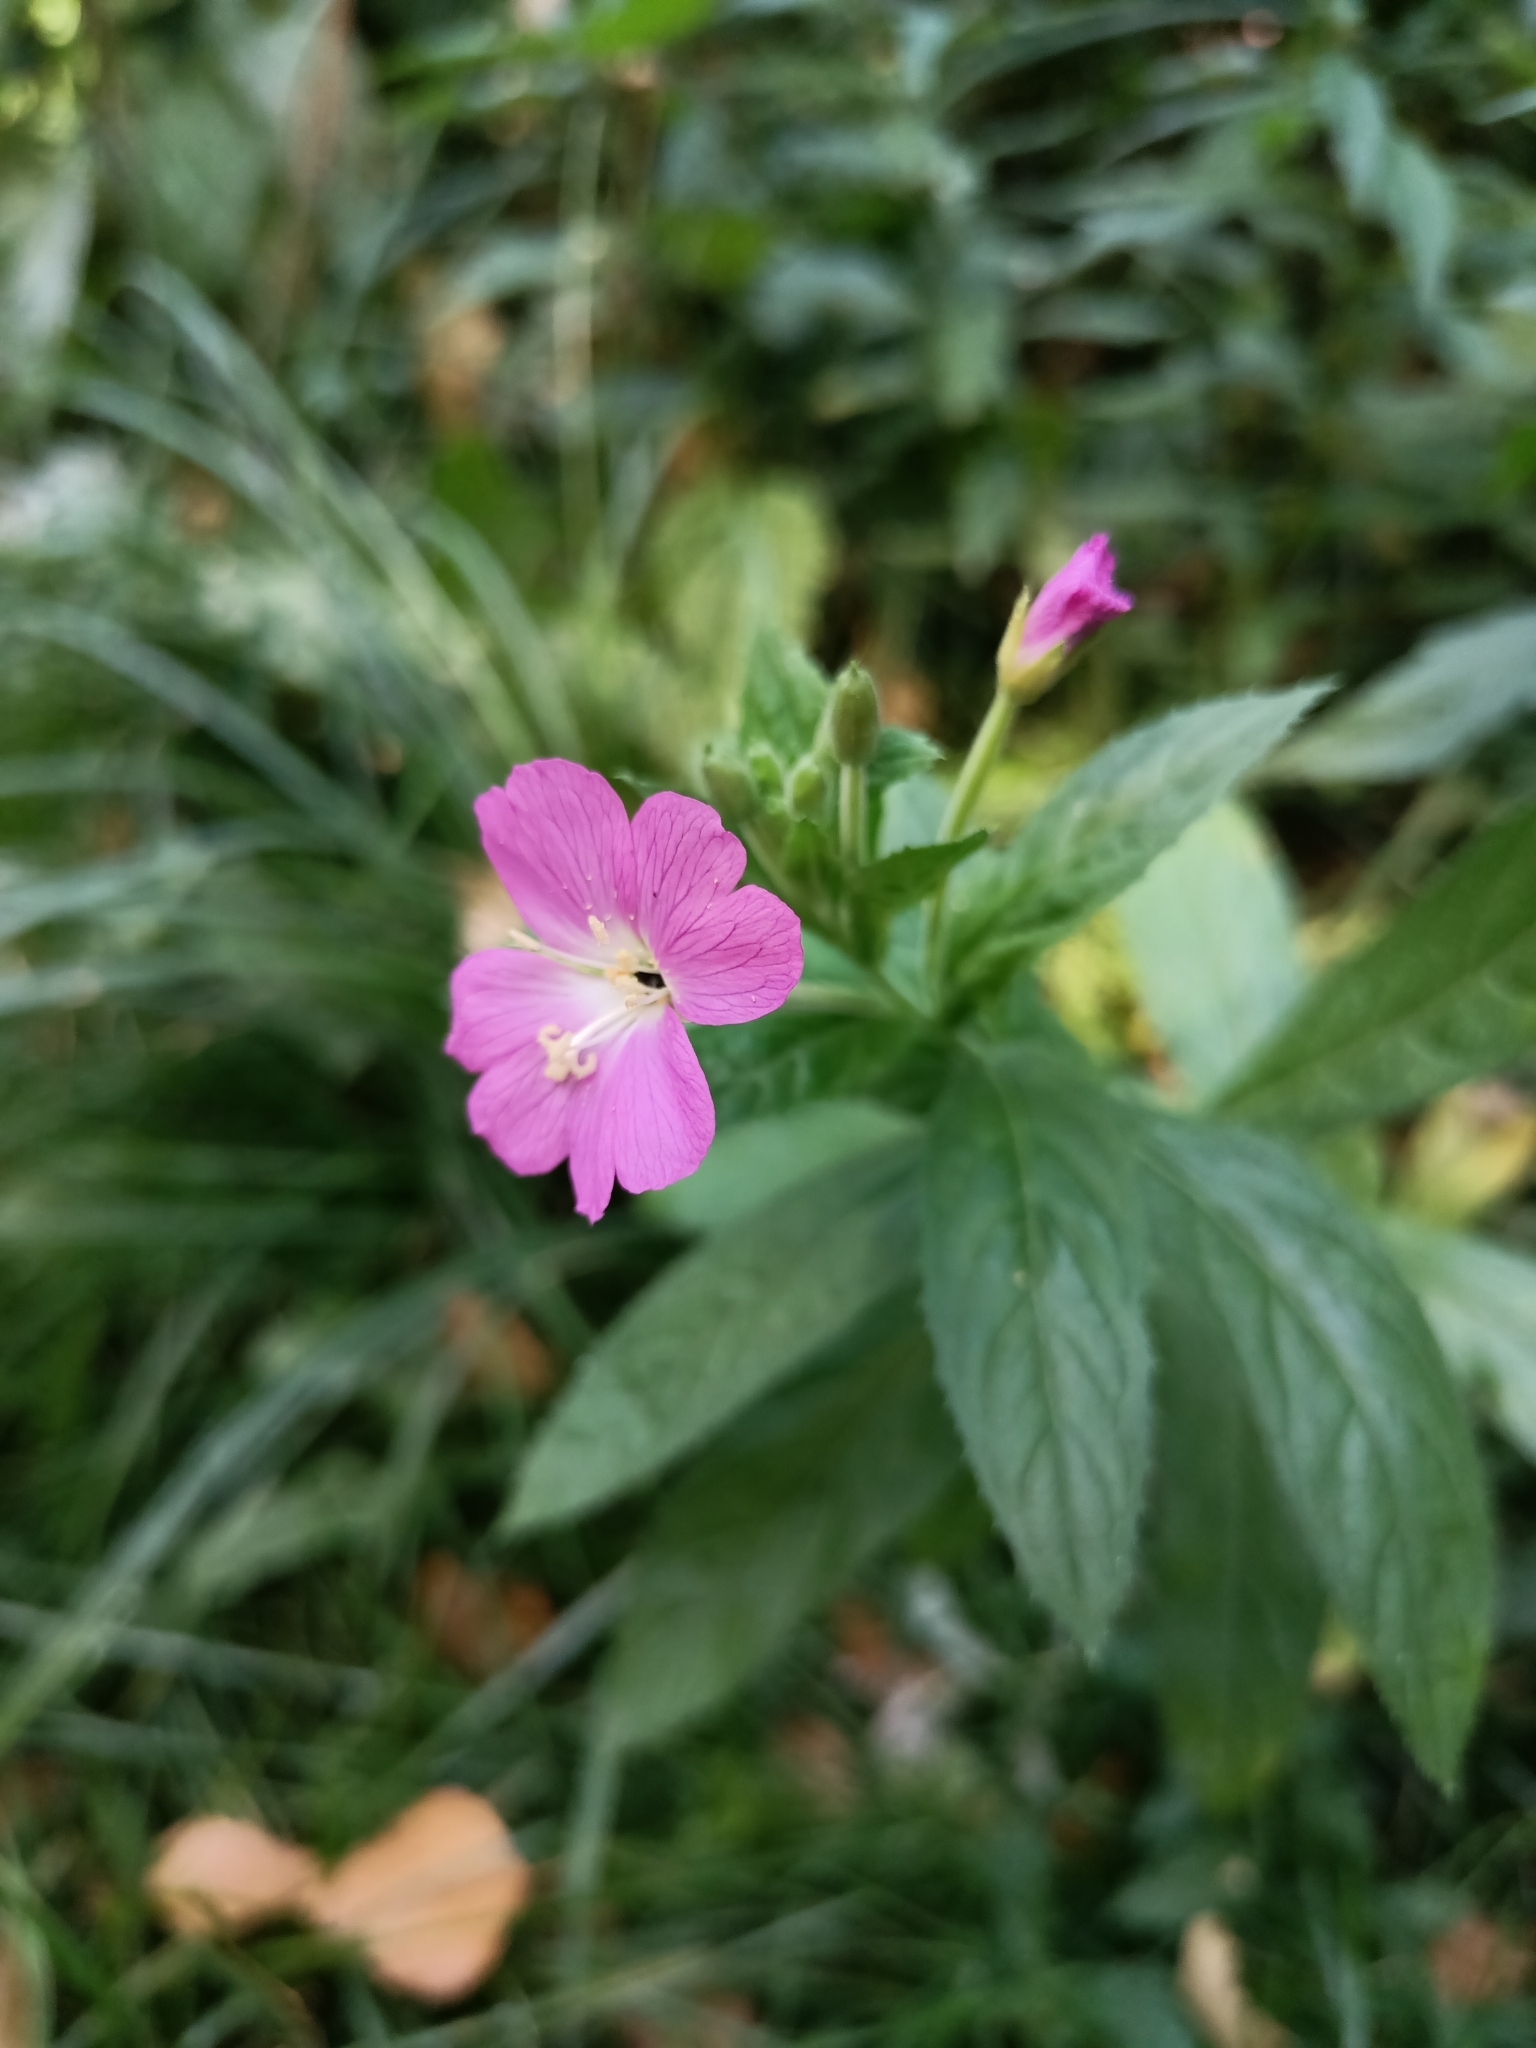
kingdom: Plantae
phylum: Tracheophyta
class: Magnoliopsida
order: Myrtales
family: Onagraceae
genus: Epilobium
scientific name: Epilobium hirsutum
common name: Great willowherb
